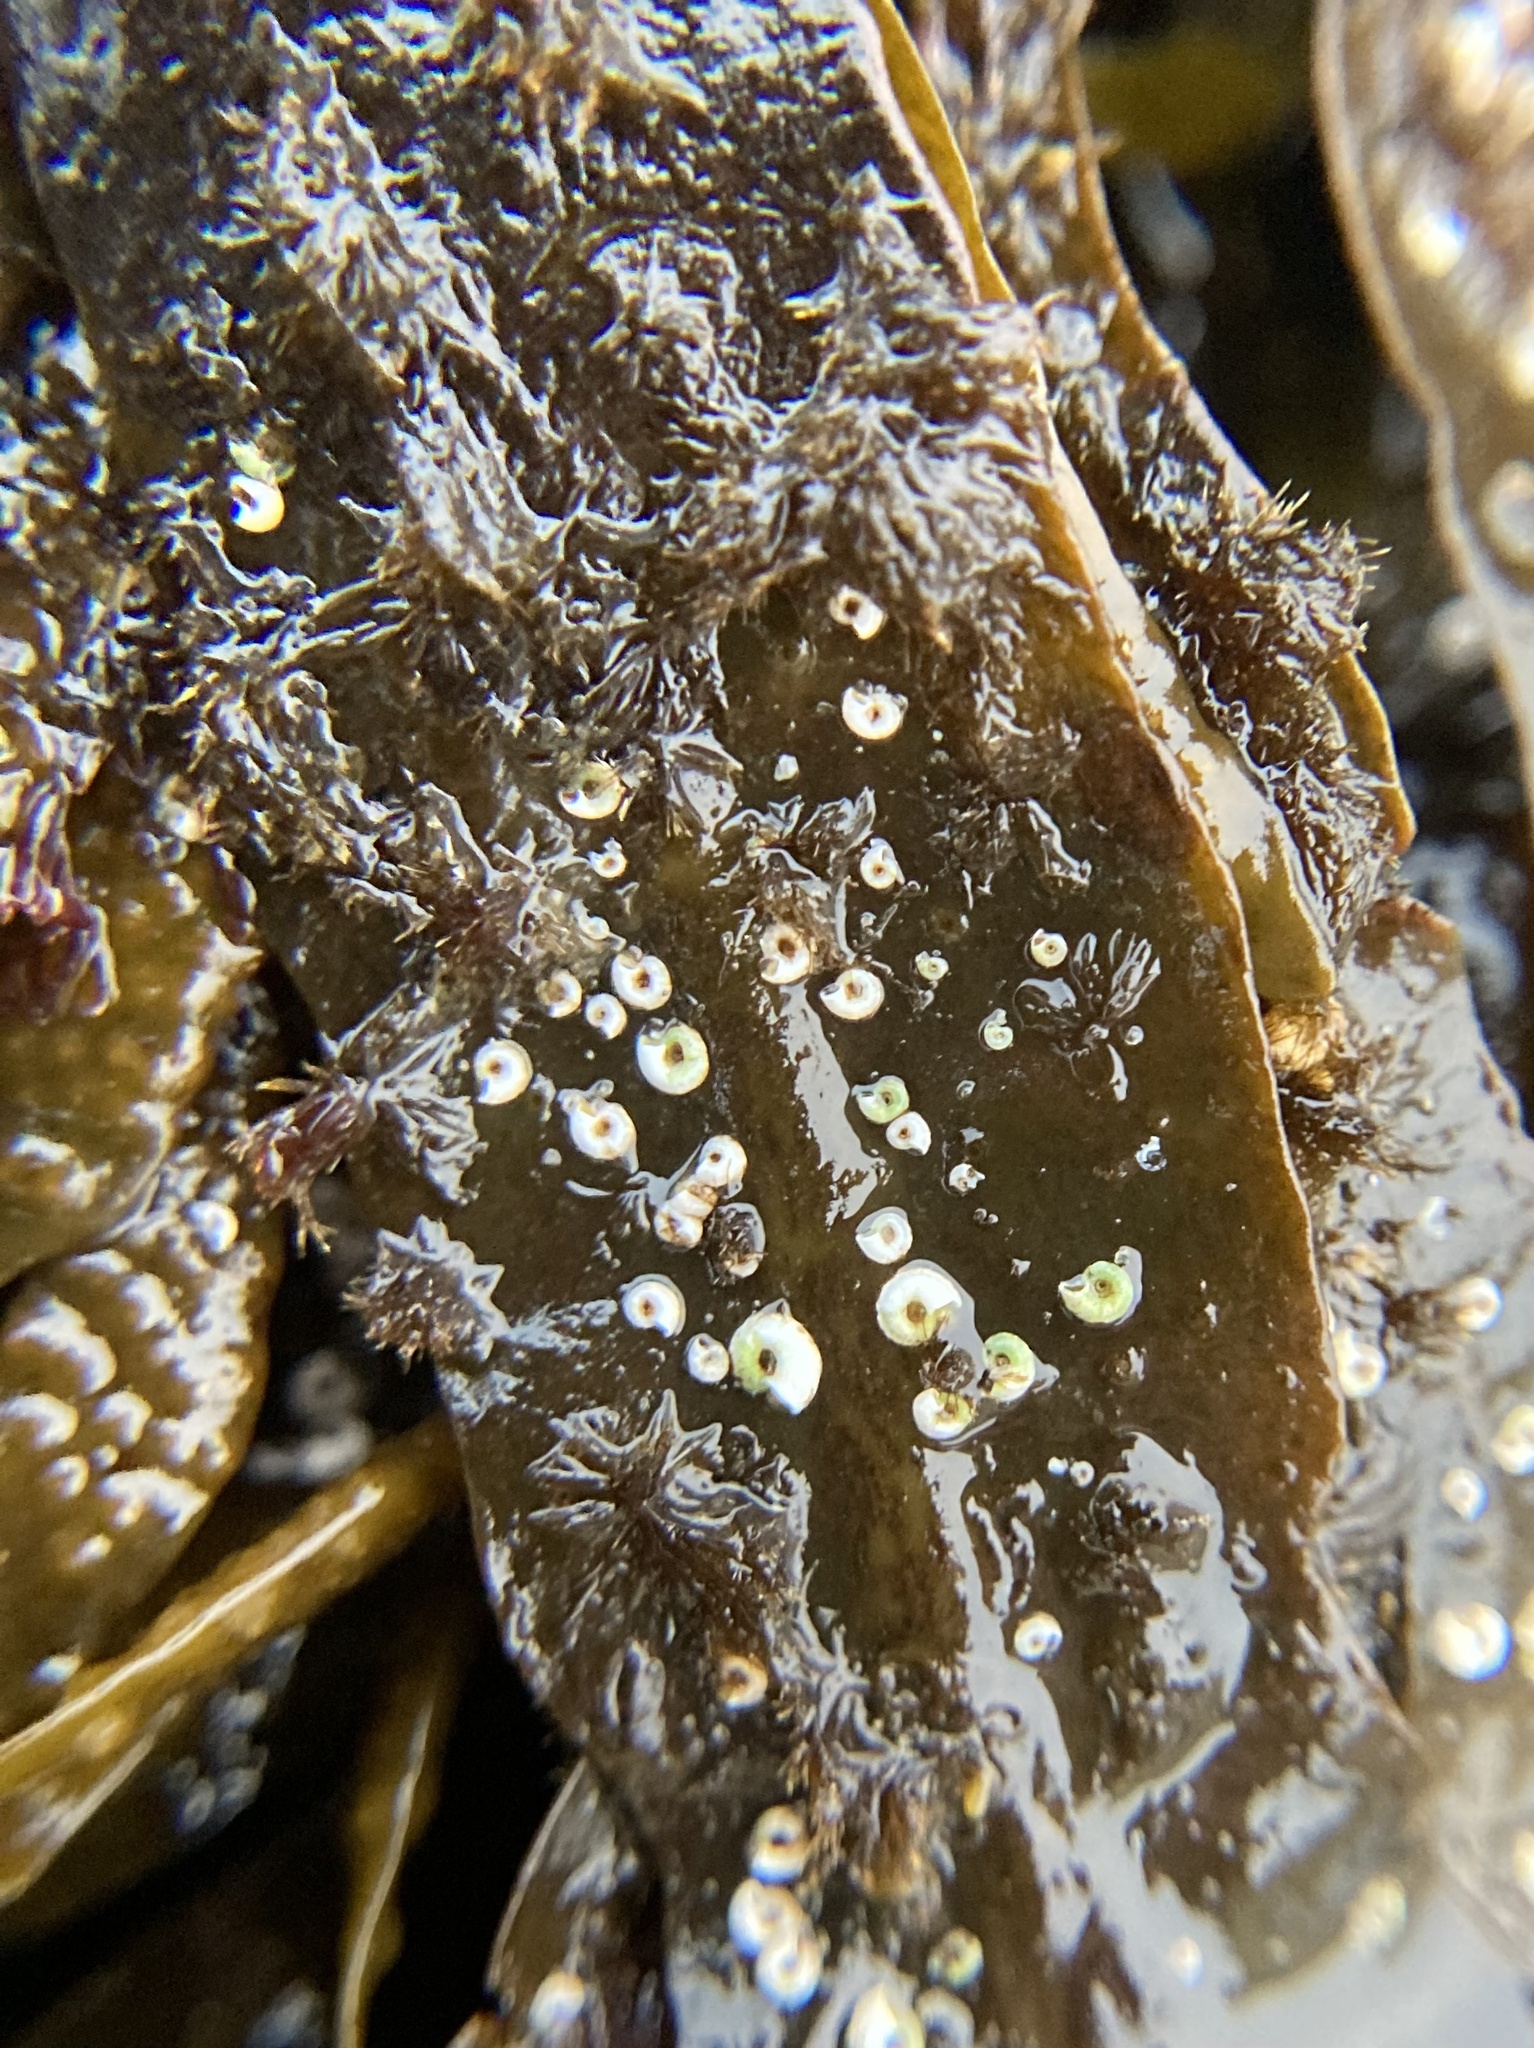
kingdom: Animalia
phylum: Annelida
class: Polychaeta
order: Sabellida
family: Serpulidae
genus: Spirorbis
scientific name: Spirorbis spirorbis
